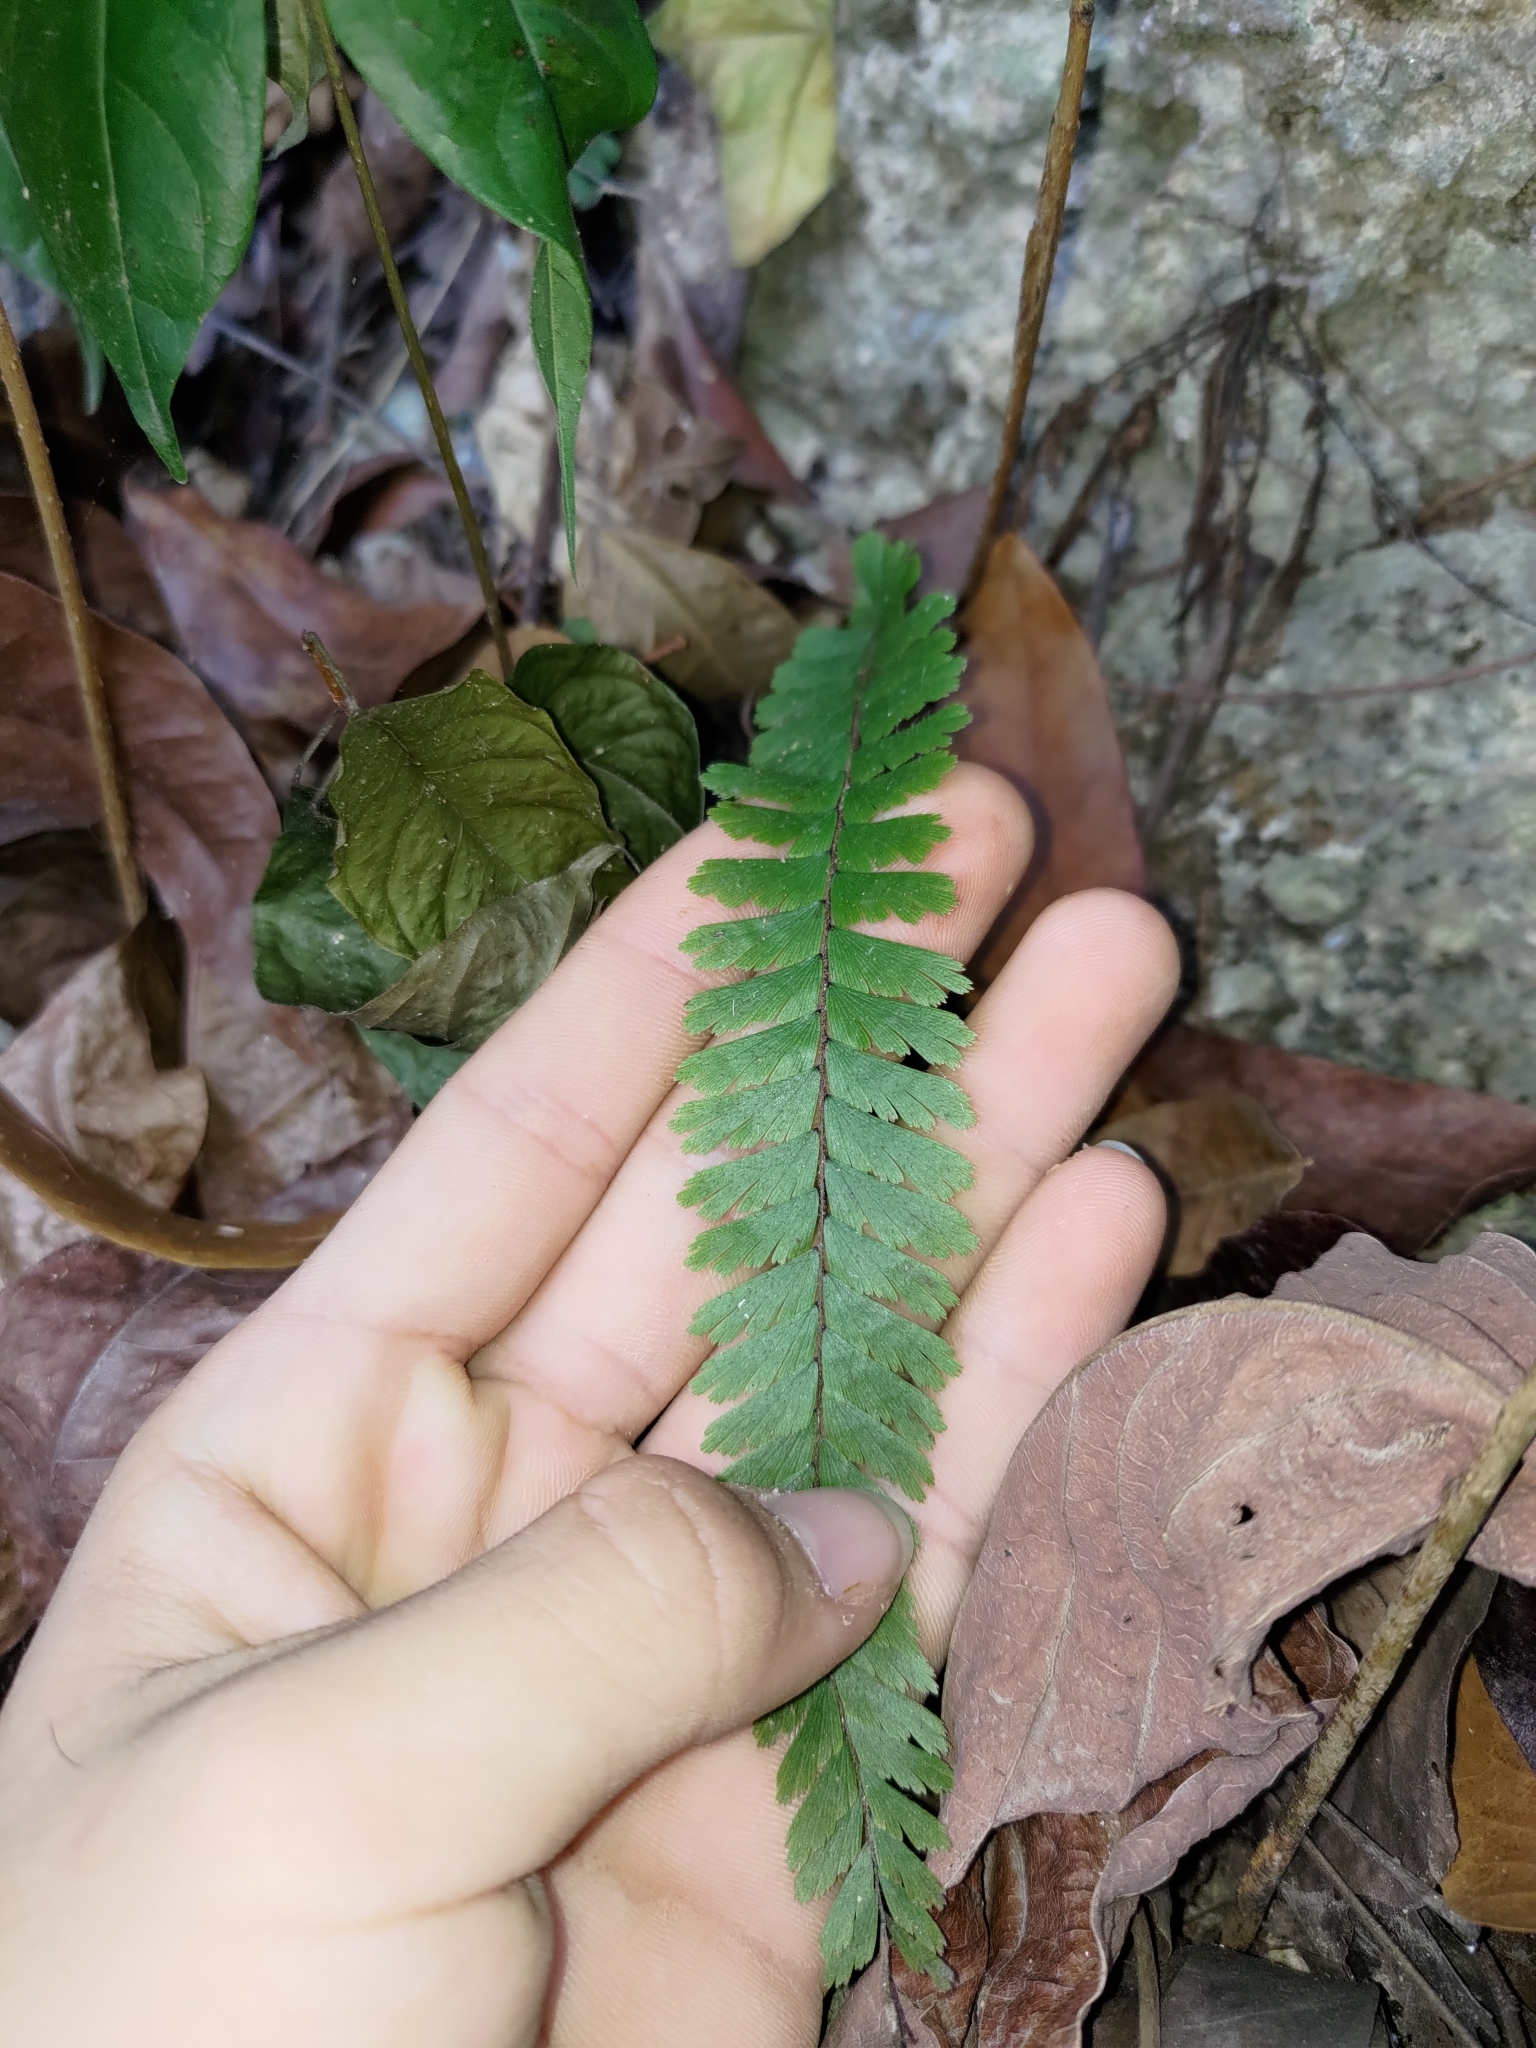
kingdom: Plantae
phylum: Tracheophyta
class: Polypodiopsida
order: Polypodiales
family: Pteridaceae
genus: Adiantum
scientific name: Adiantum caudatum
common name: Tailed maidenhair
